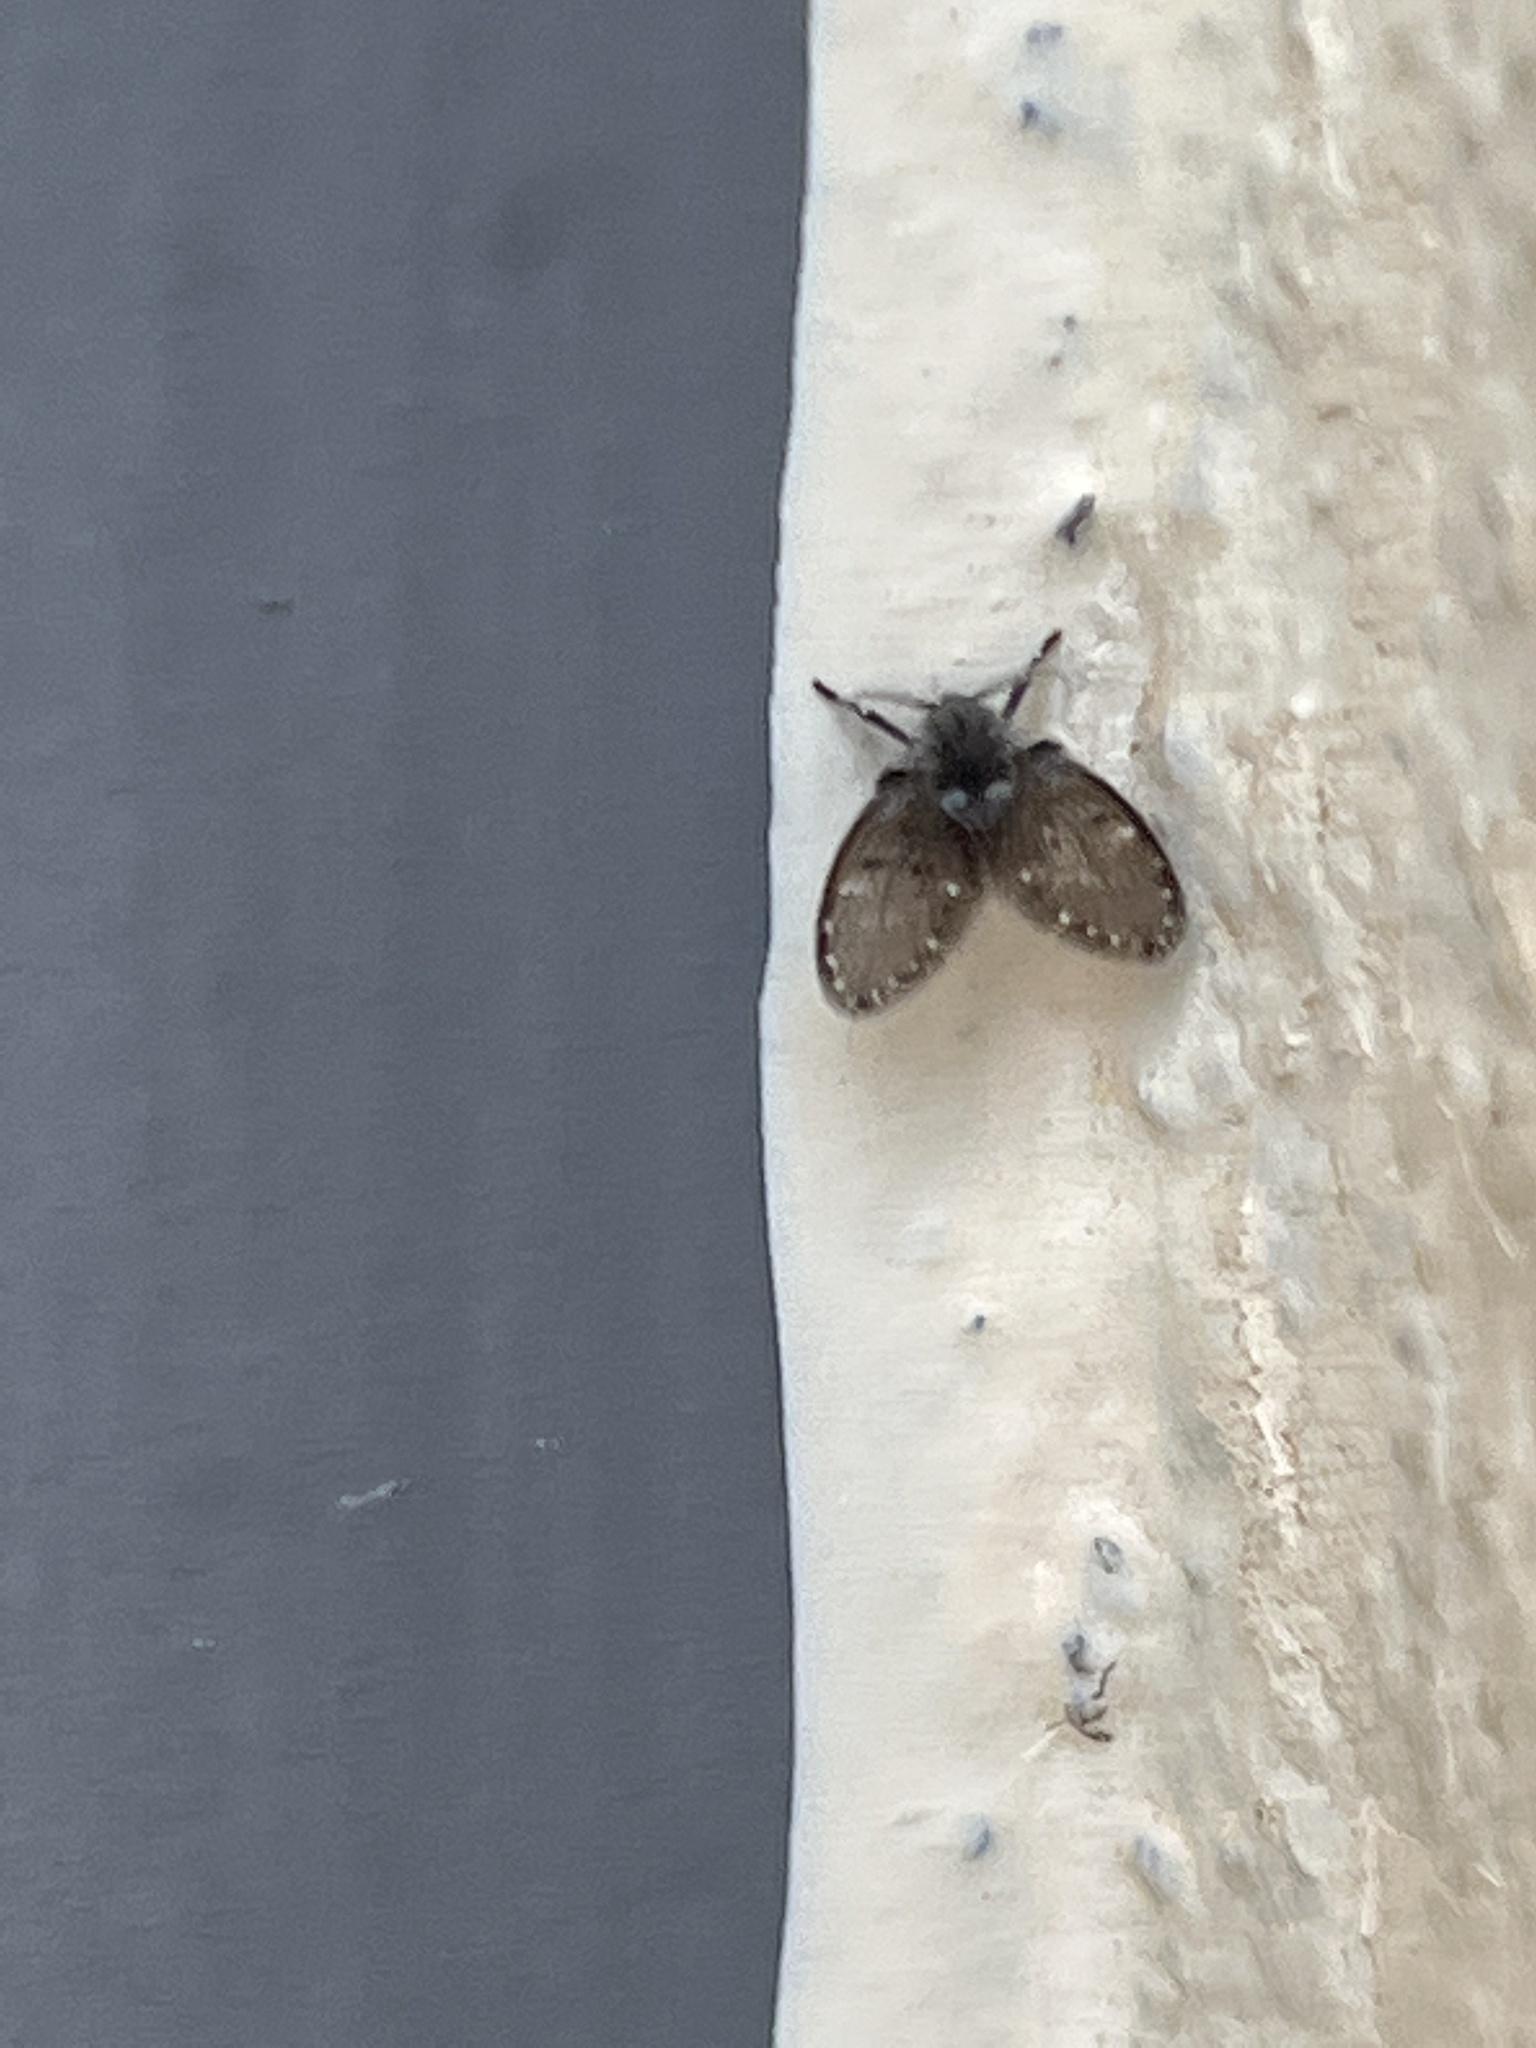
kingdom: Animalia
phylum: Arthropoda
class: Insecta
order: Diptera
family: Psychodidae
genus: Clogmia
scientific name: Clogmia albipunctatus
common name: White-spotted moth fly
